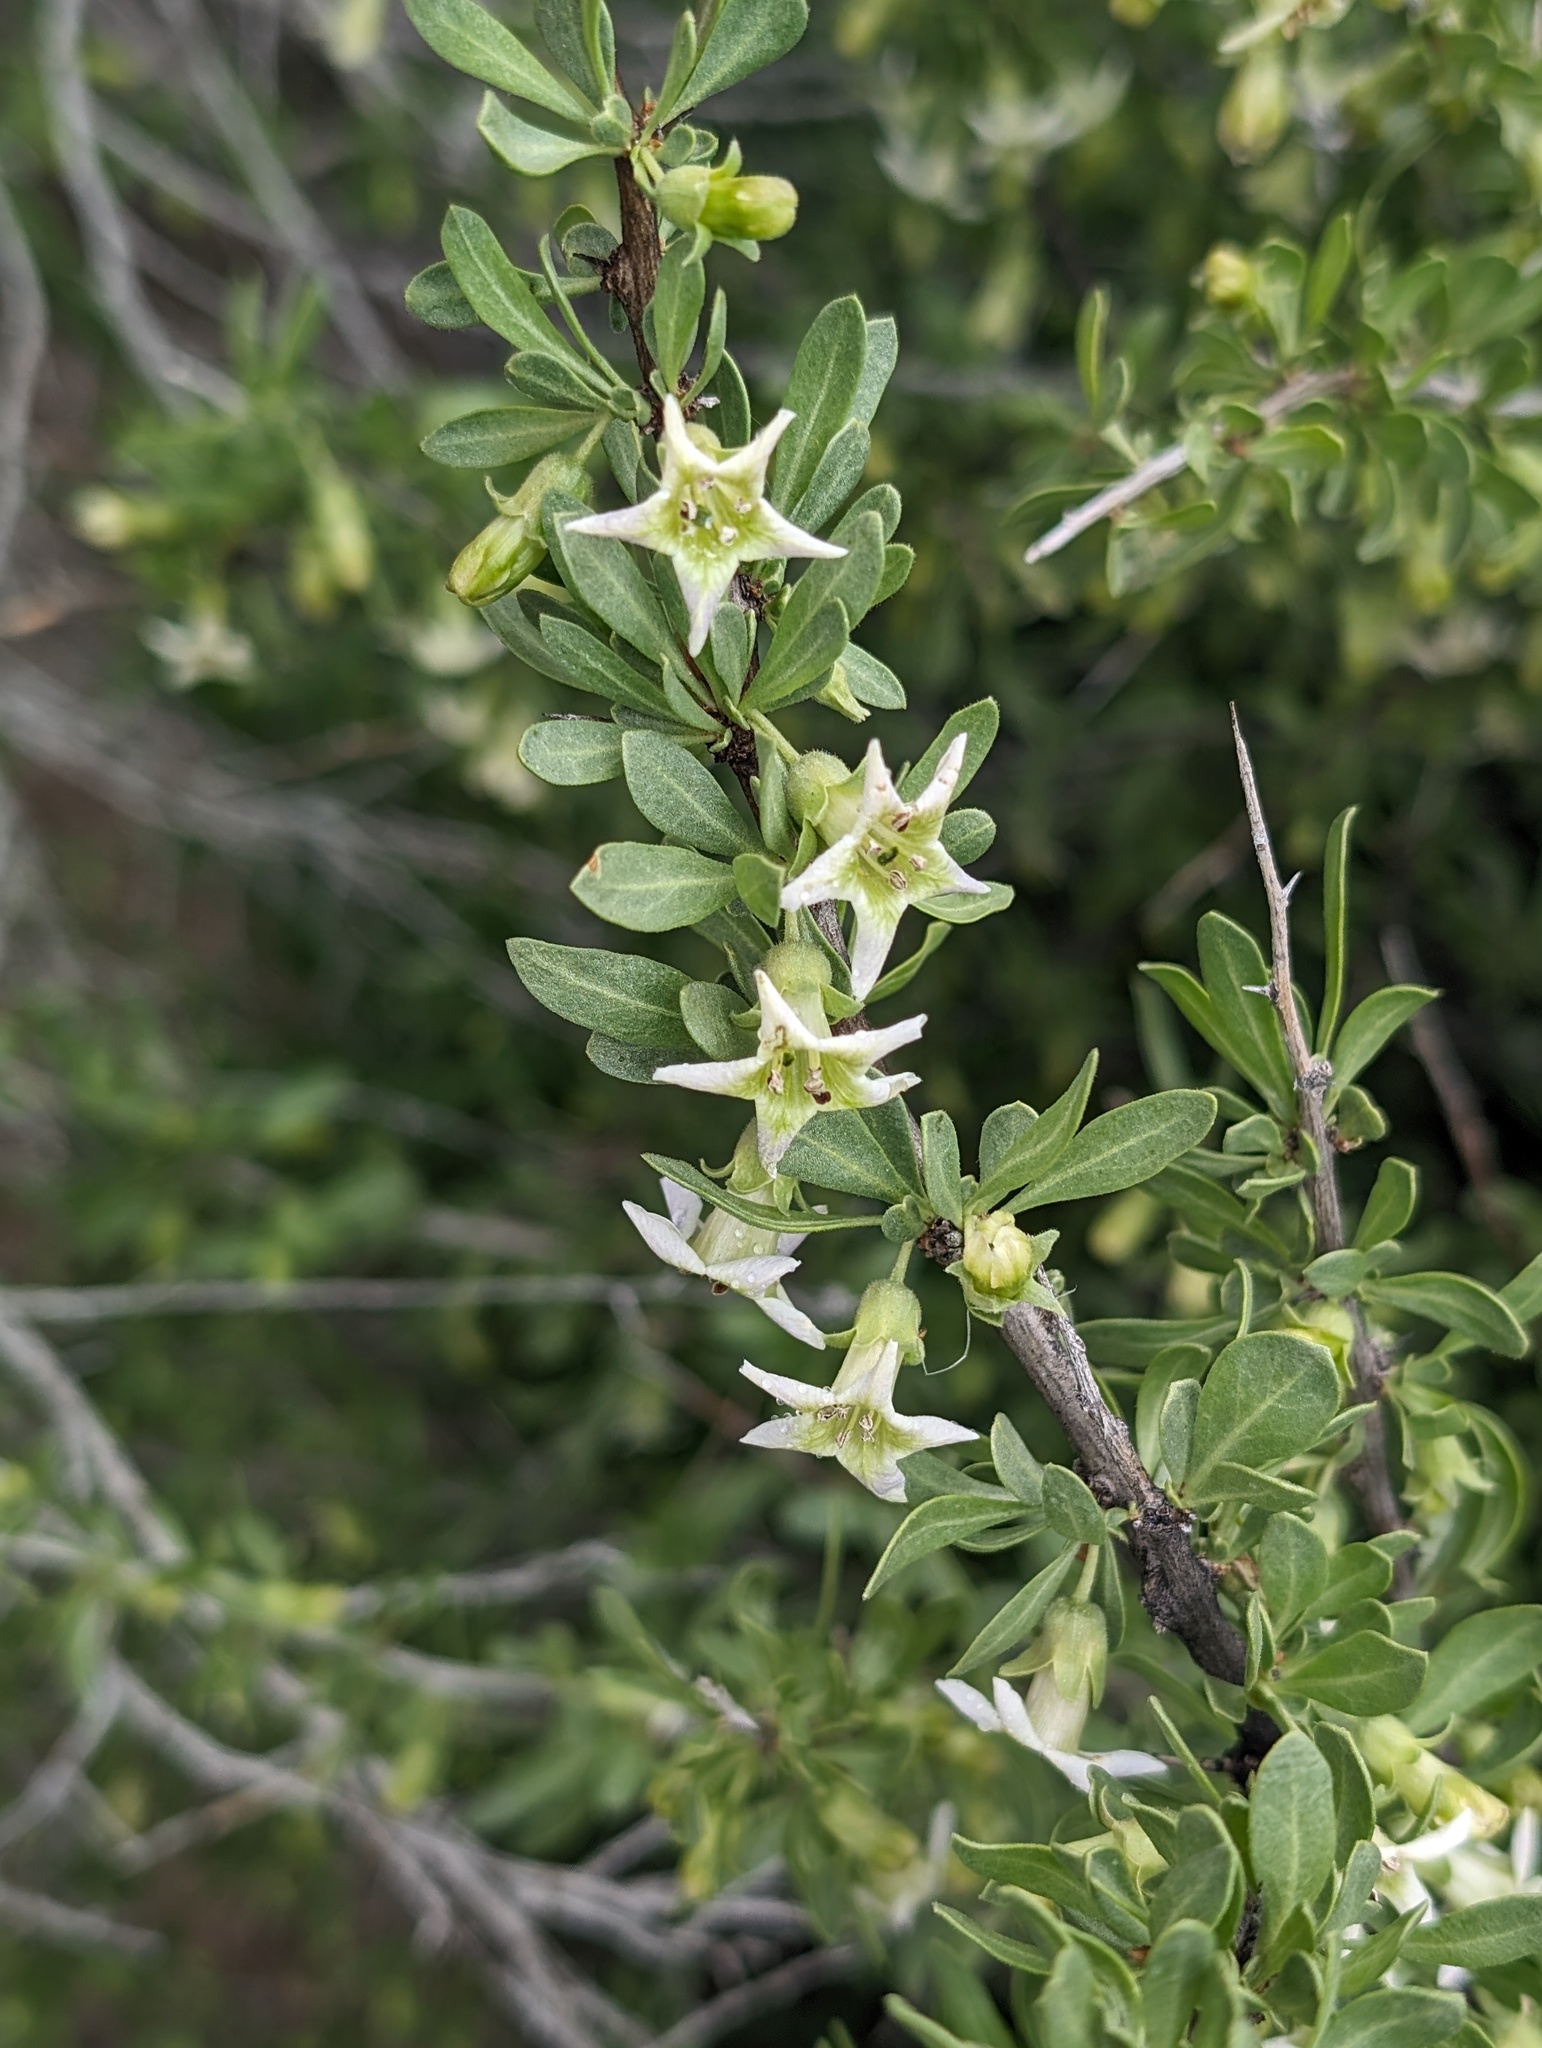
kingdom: Plantae
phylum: Tracheophyta
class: Magnoliopsida
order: Solanales
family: Solanaceae
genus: Lycium
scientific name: Lycium cooperi
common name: Peachthorn
